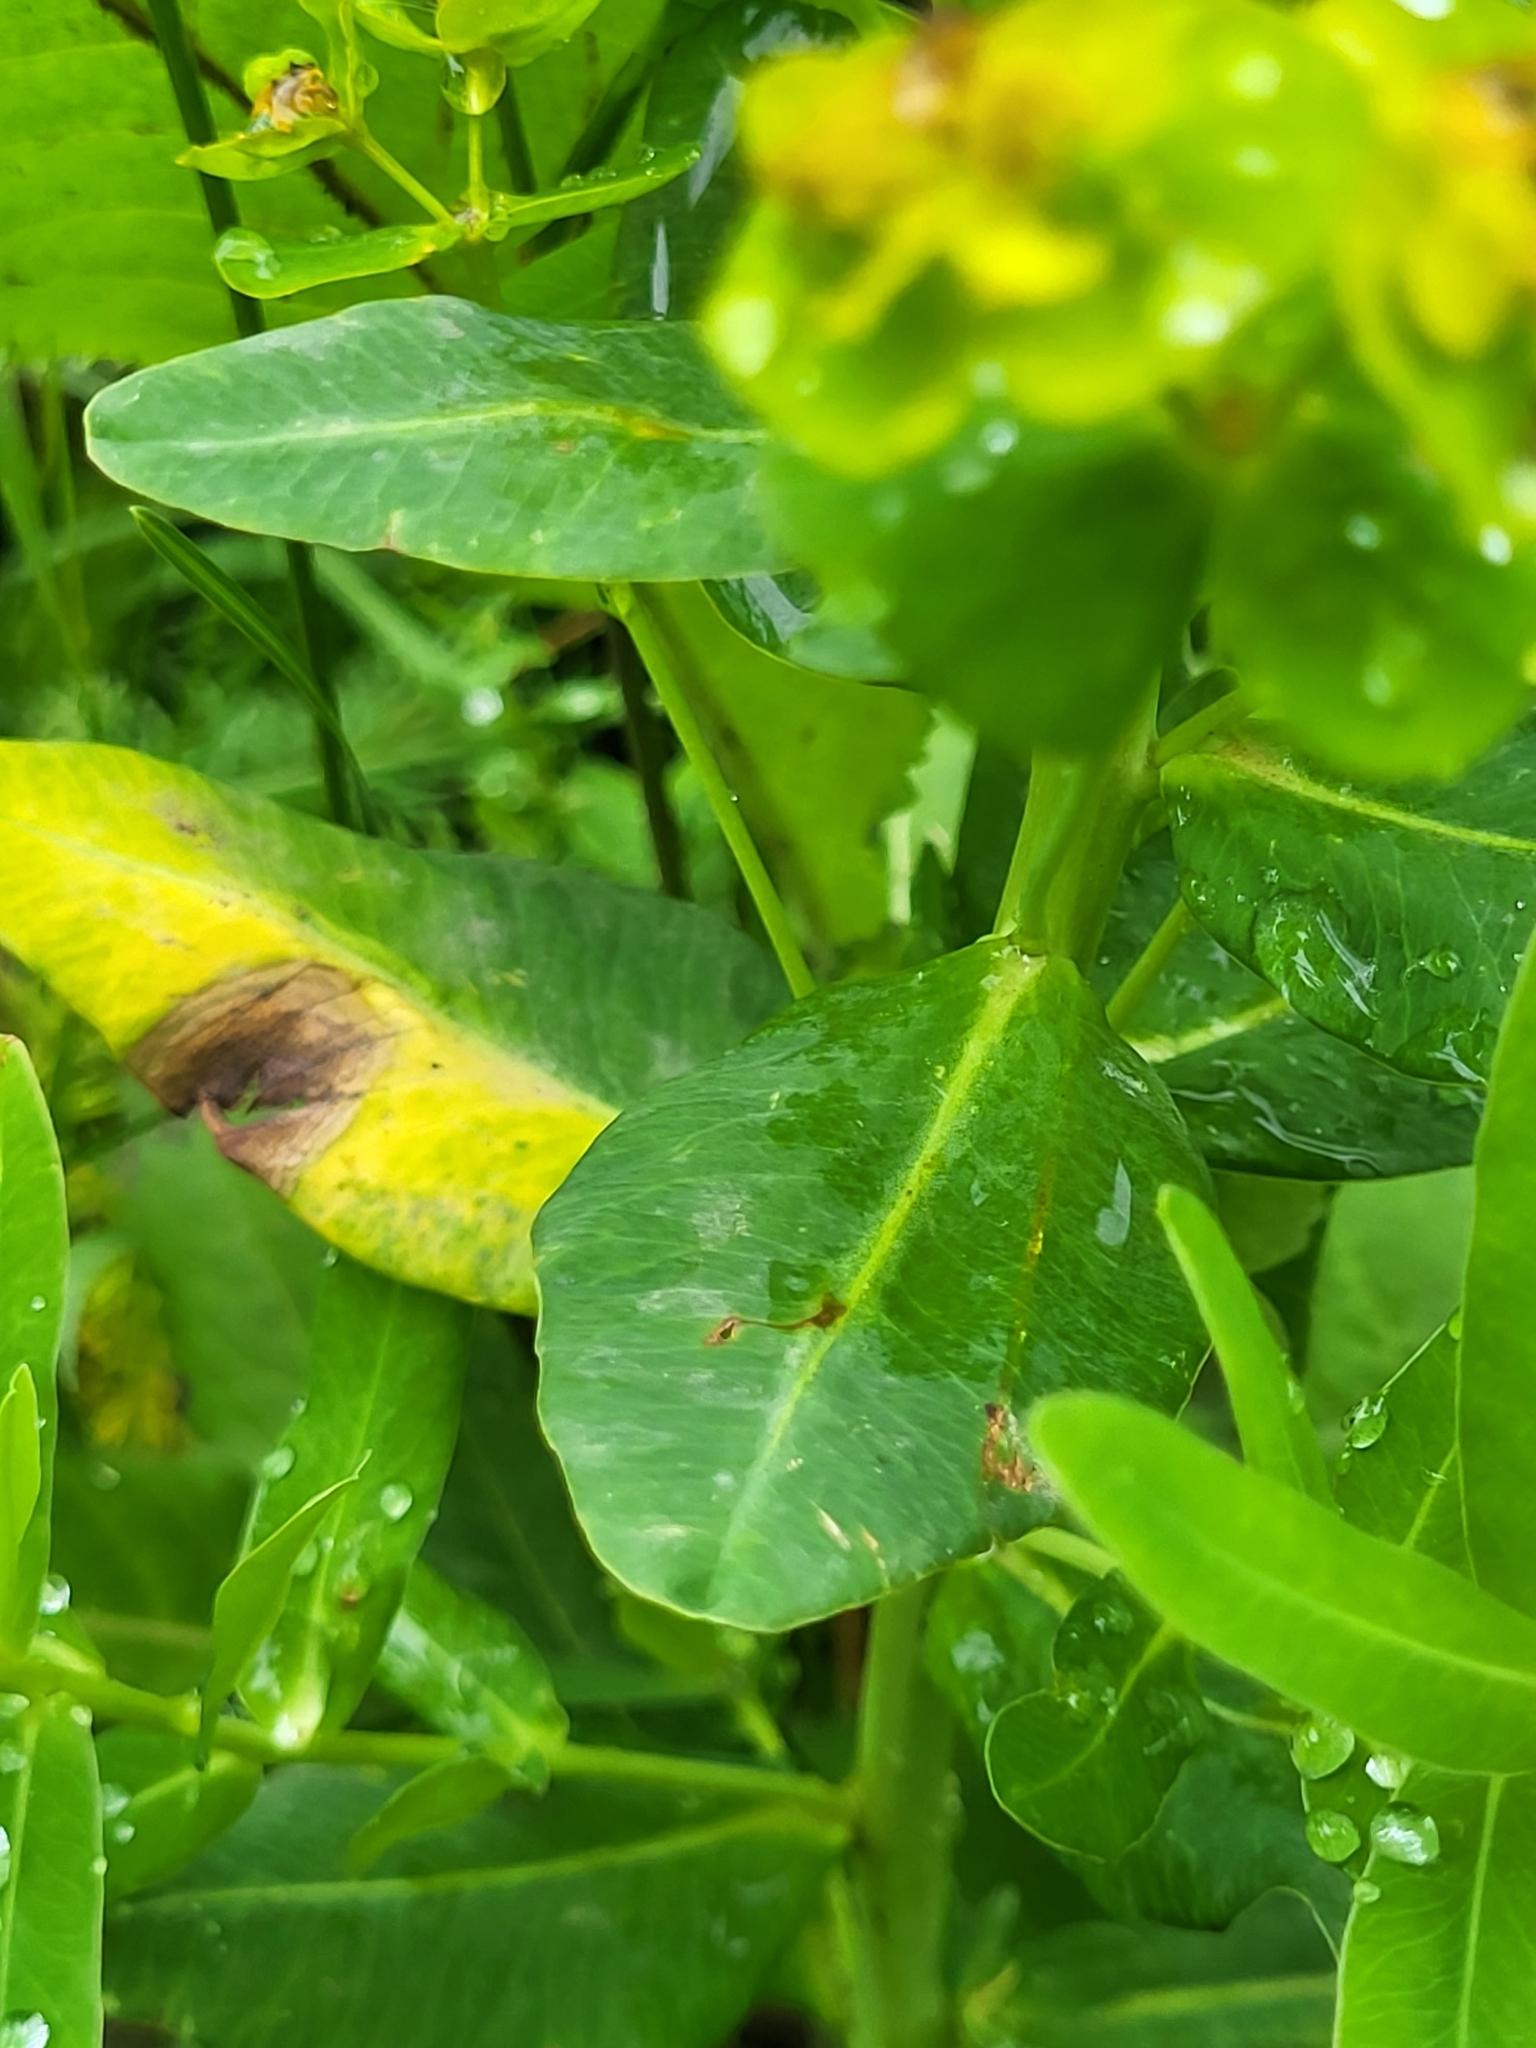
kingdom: Plantae
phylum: Tracheophyta
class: Magnoliopsida
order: Malpighiales
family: Euphorbiaceae
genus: Euphorbia
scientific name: Euphorbia iberica
